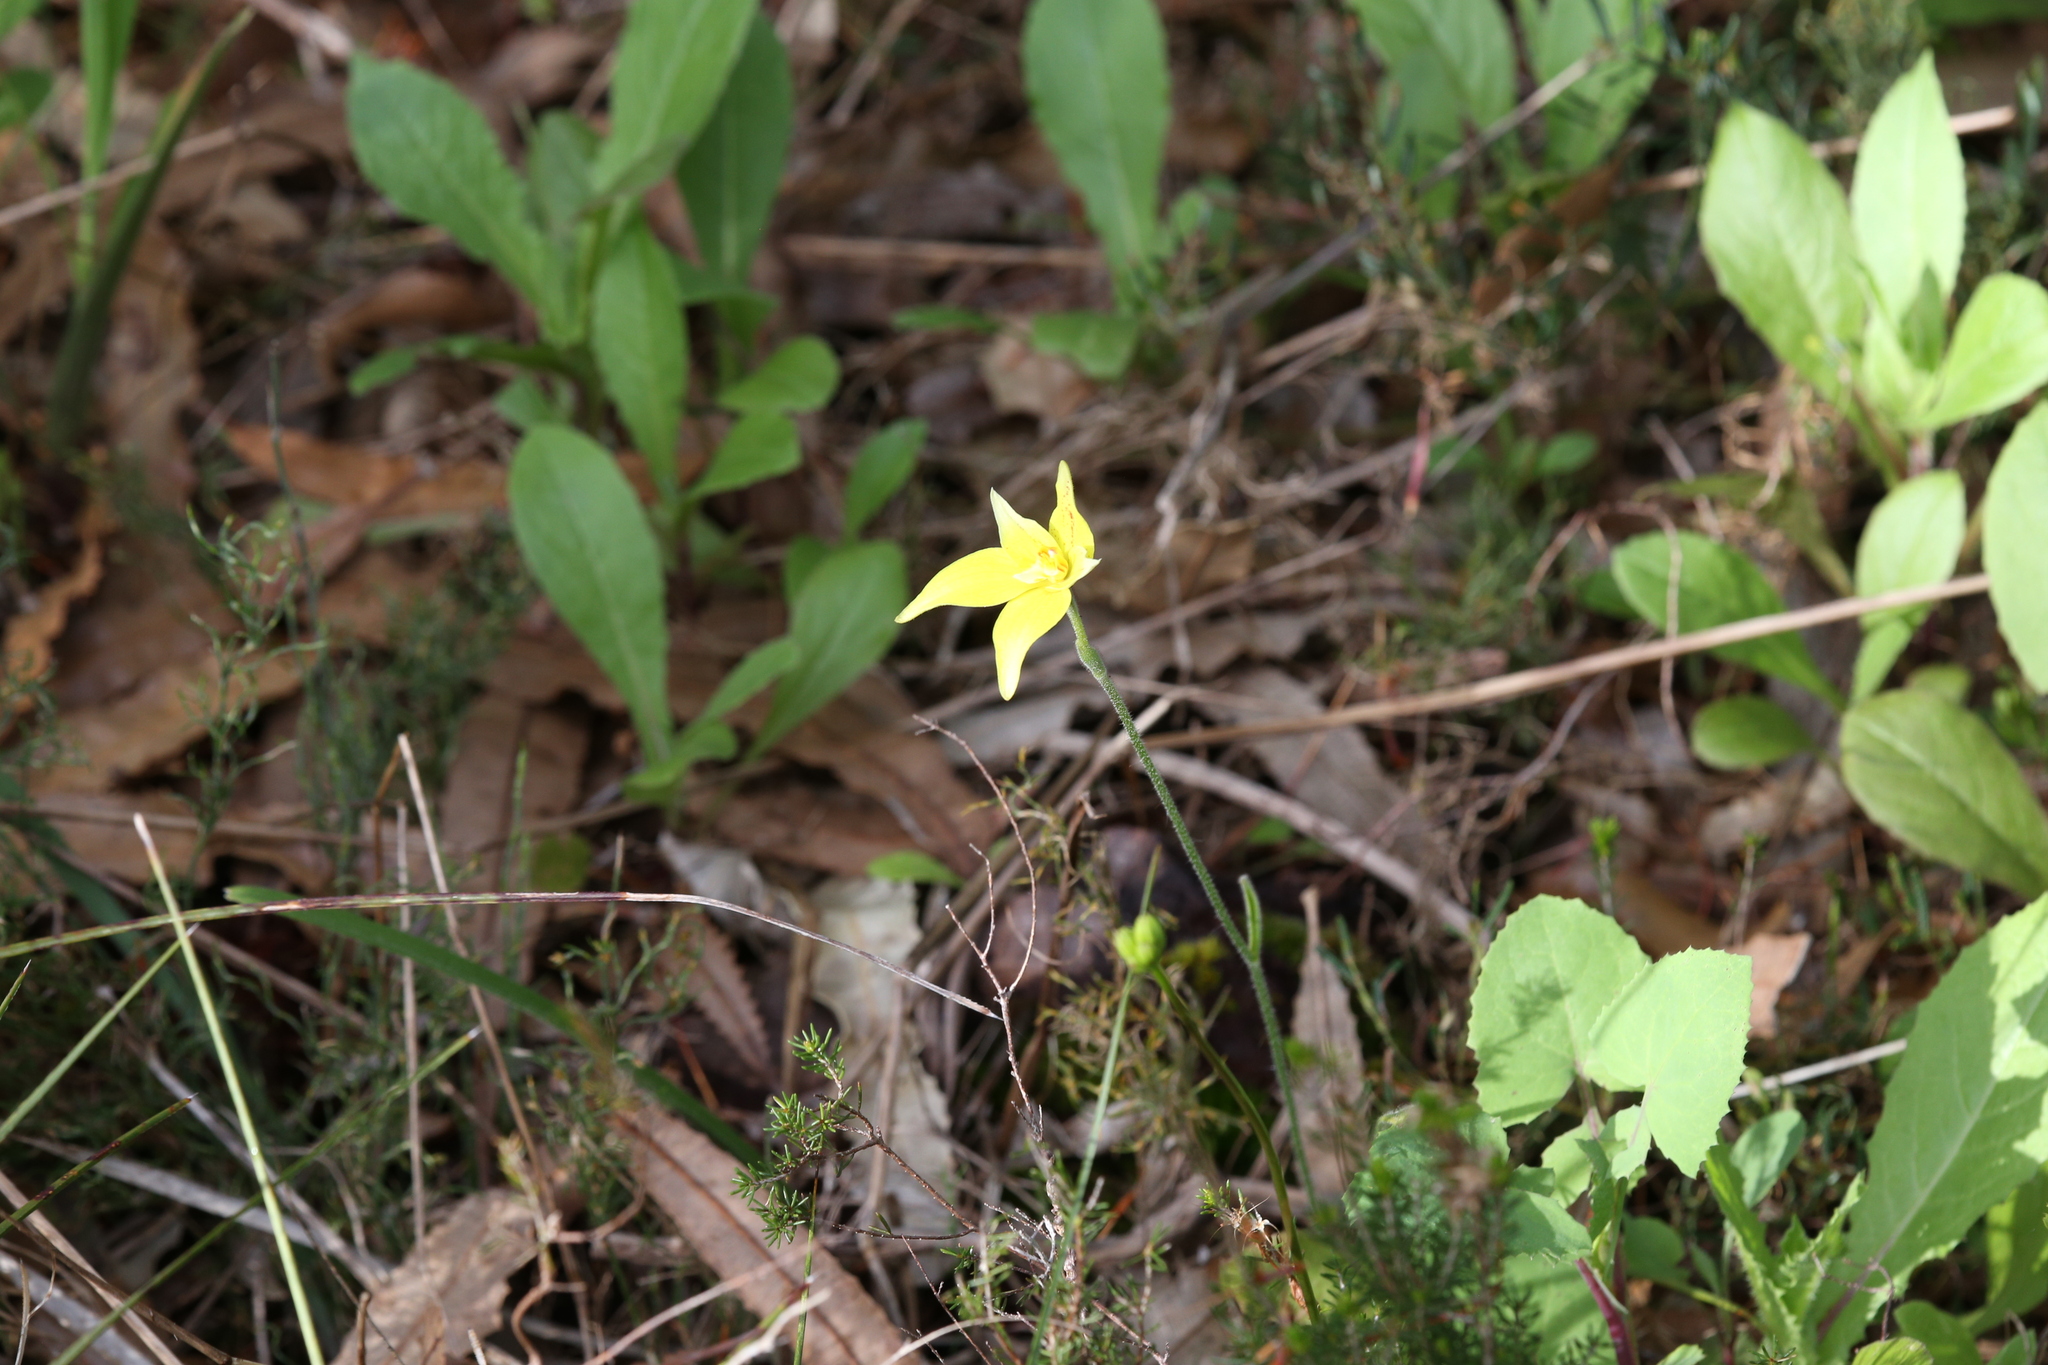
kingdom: Plantae
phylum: Tracheophyta
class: Liliopsida
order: Asparagales
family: Orchidaceae
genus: Caladenia
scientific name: Caladenia flava
